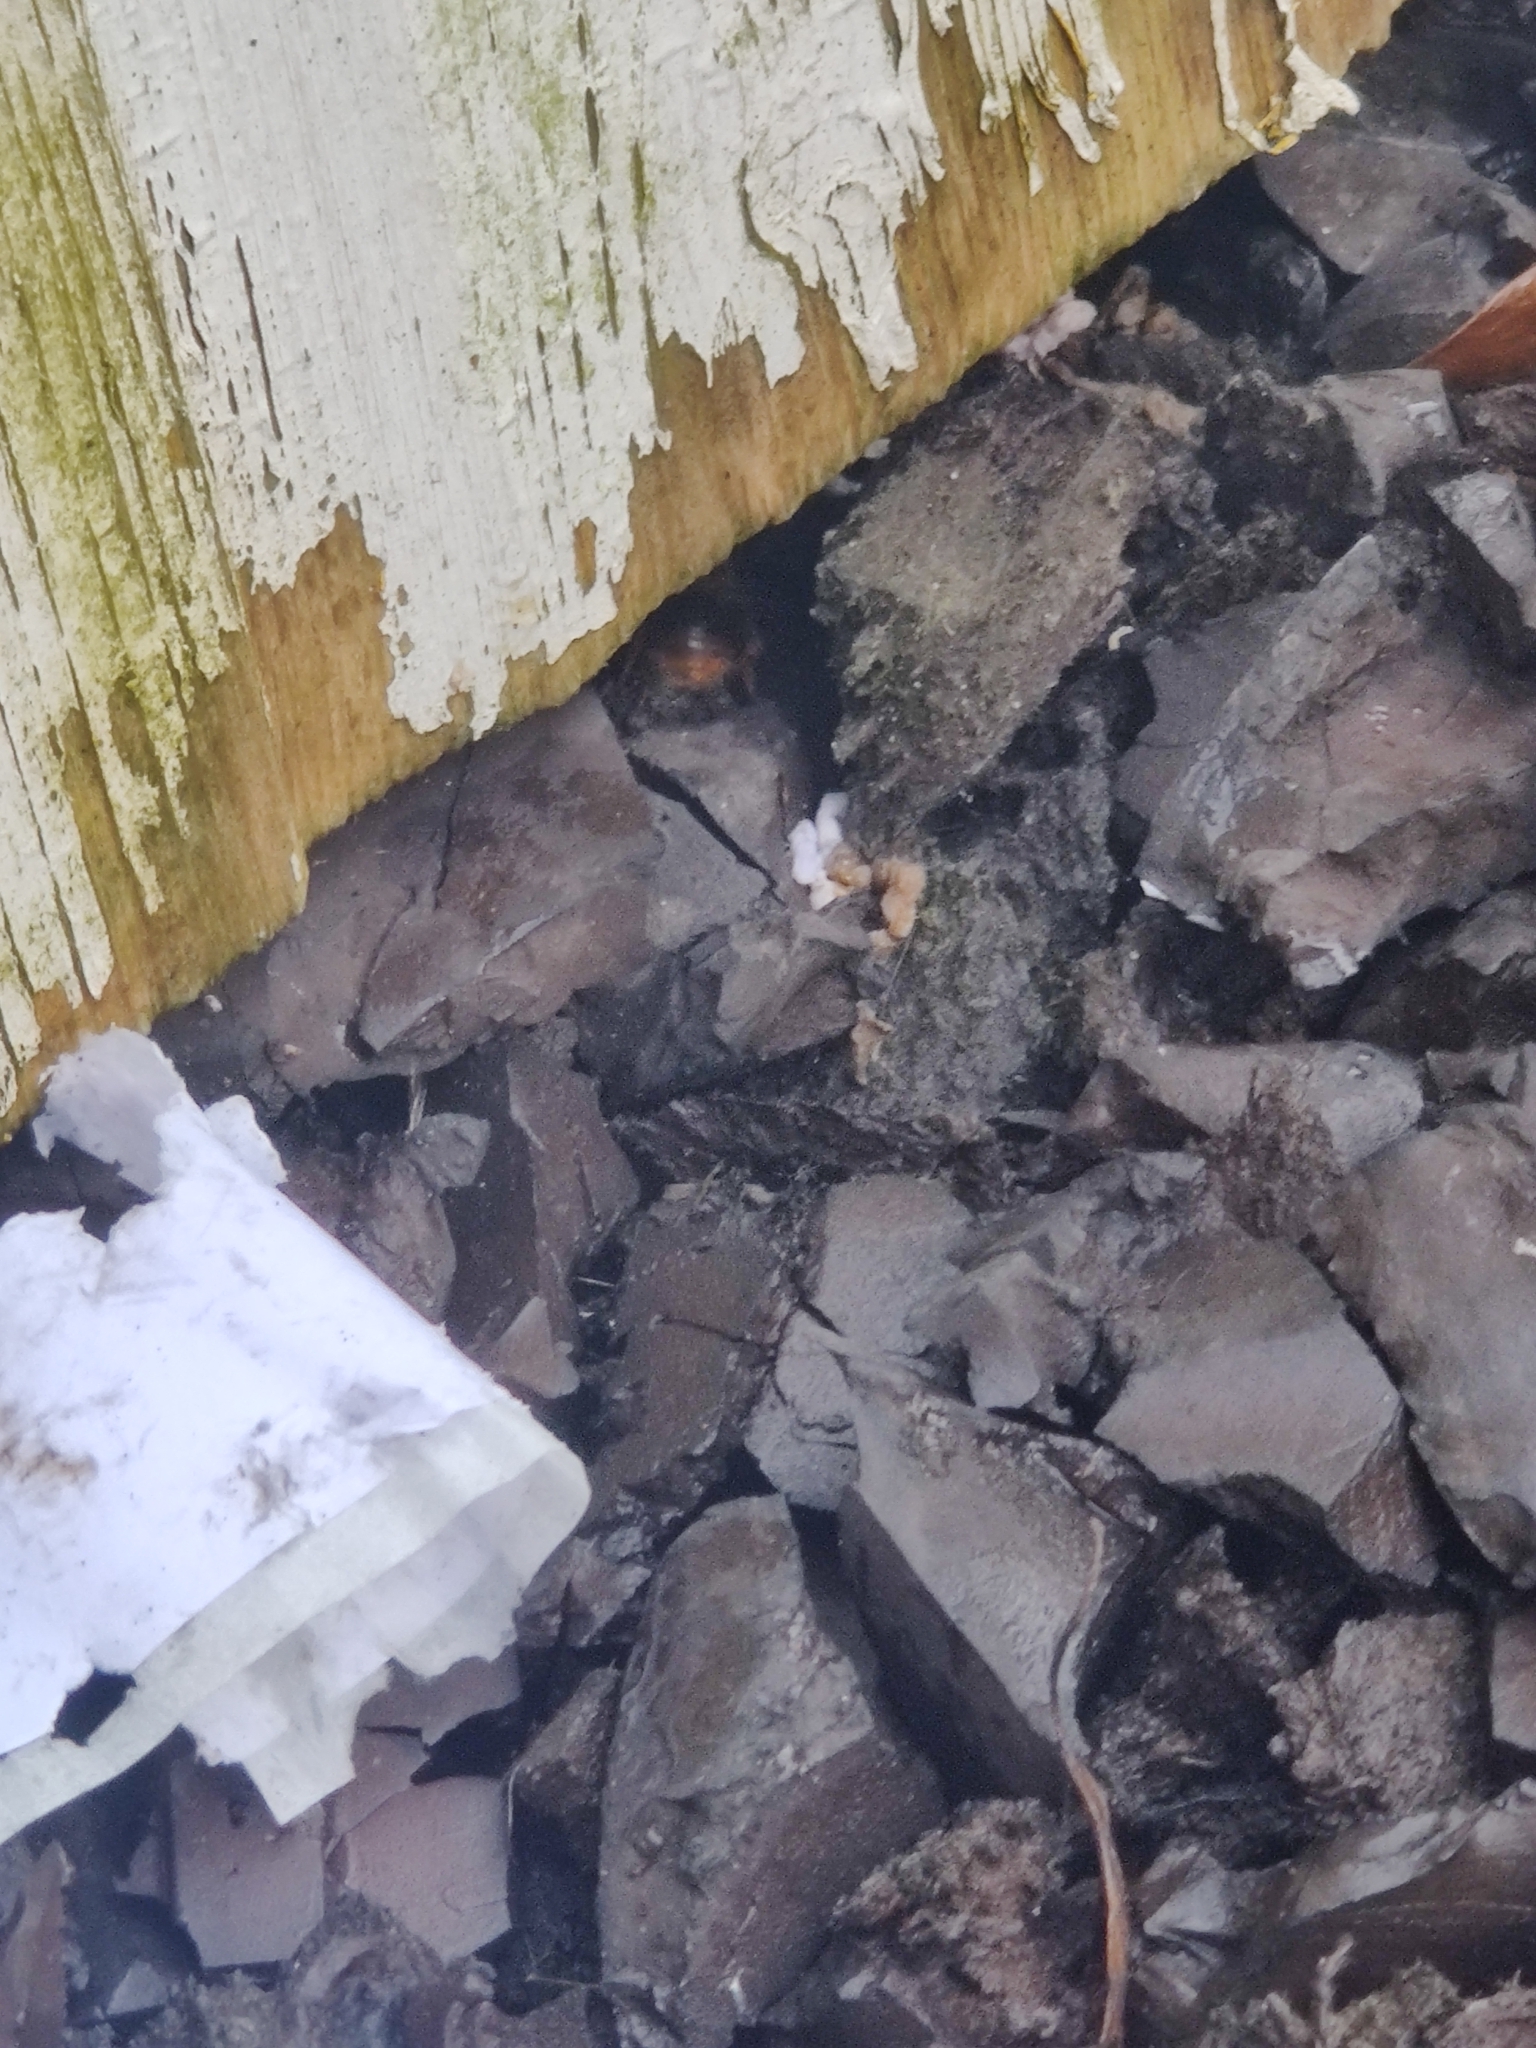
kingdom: Animalia
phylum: Arthropoda
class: Insecta
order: Hymenoptera
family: Apidae
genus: Bombus
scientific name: Bombus pratorum
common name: Early humble-bee
